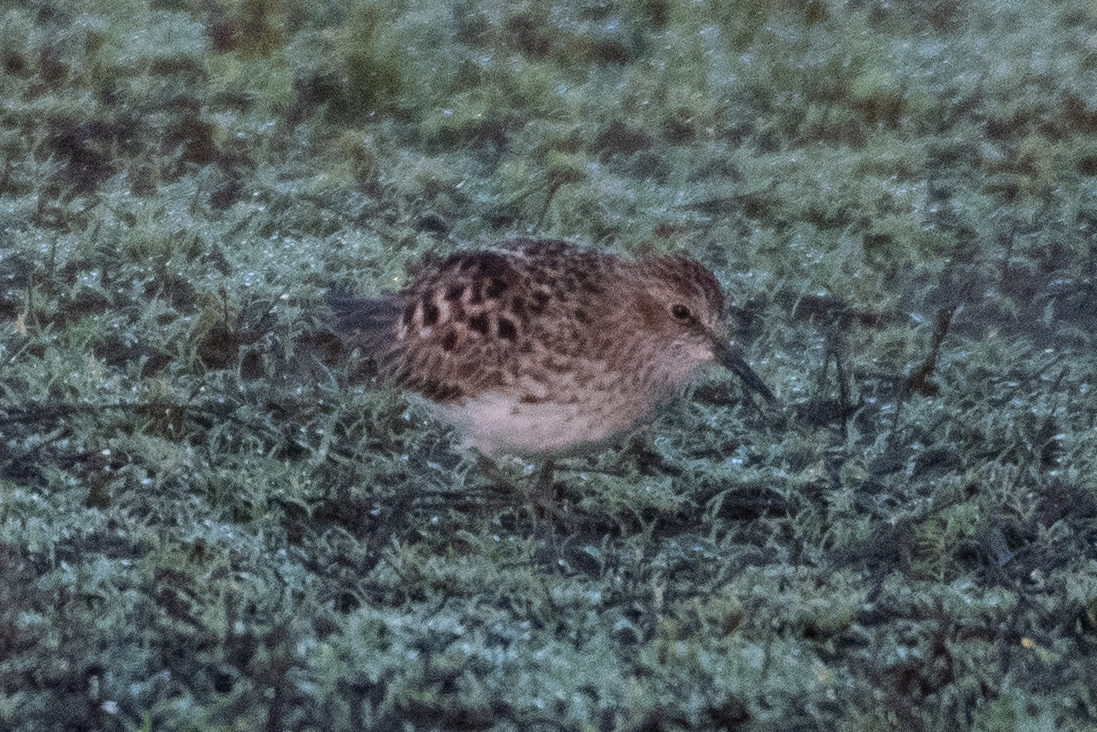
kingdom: Animalia
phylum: Chordata
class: Aves
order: Charadriiformes
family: Scolopacidae
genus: Calidris
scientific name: Calidris minutilla
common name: Least sandpiper
